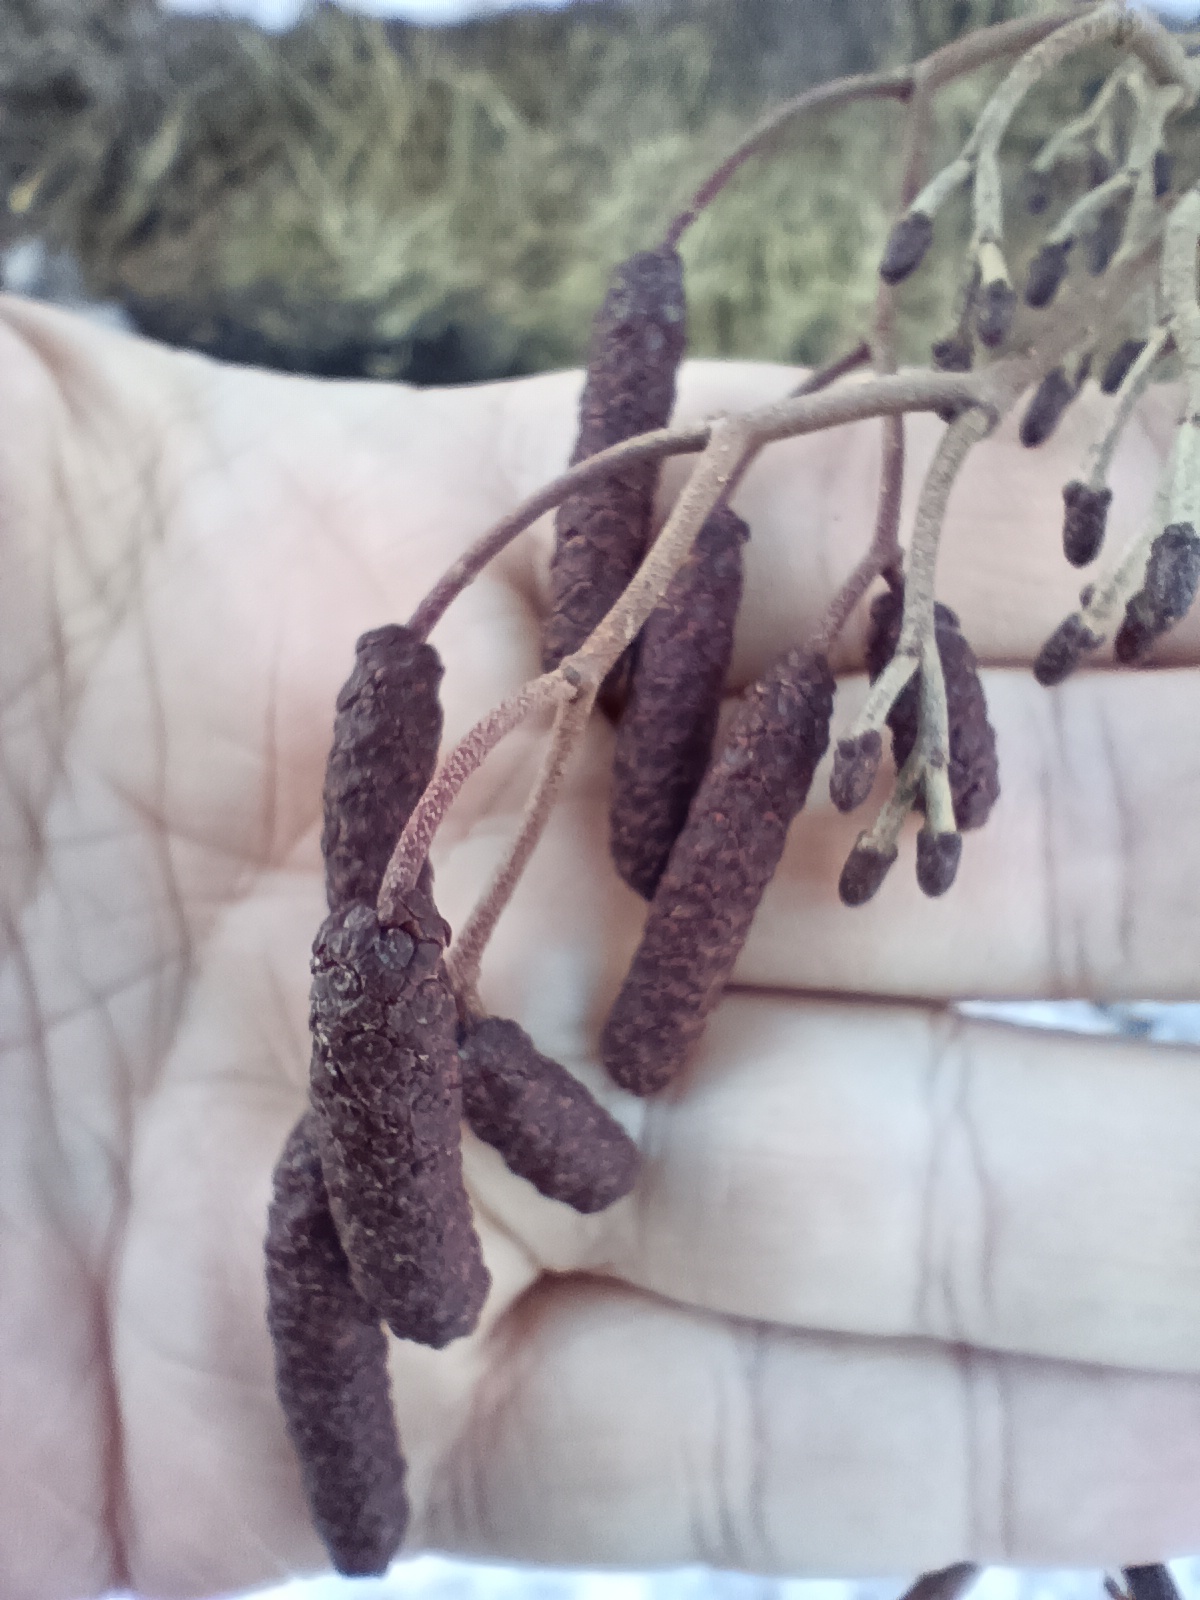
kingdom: Plantae
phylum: Tracheophyta
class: Magnoliopsida
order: Fagales
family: Betulaceae
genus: Alnus
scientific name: Alnus glutinosa
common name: Black alder
